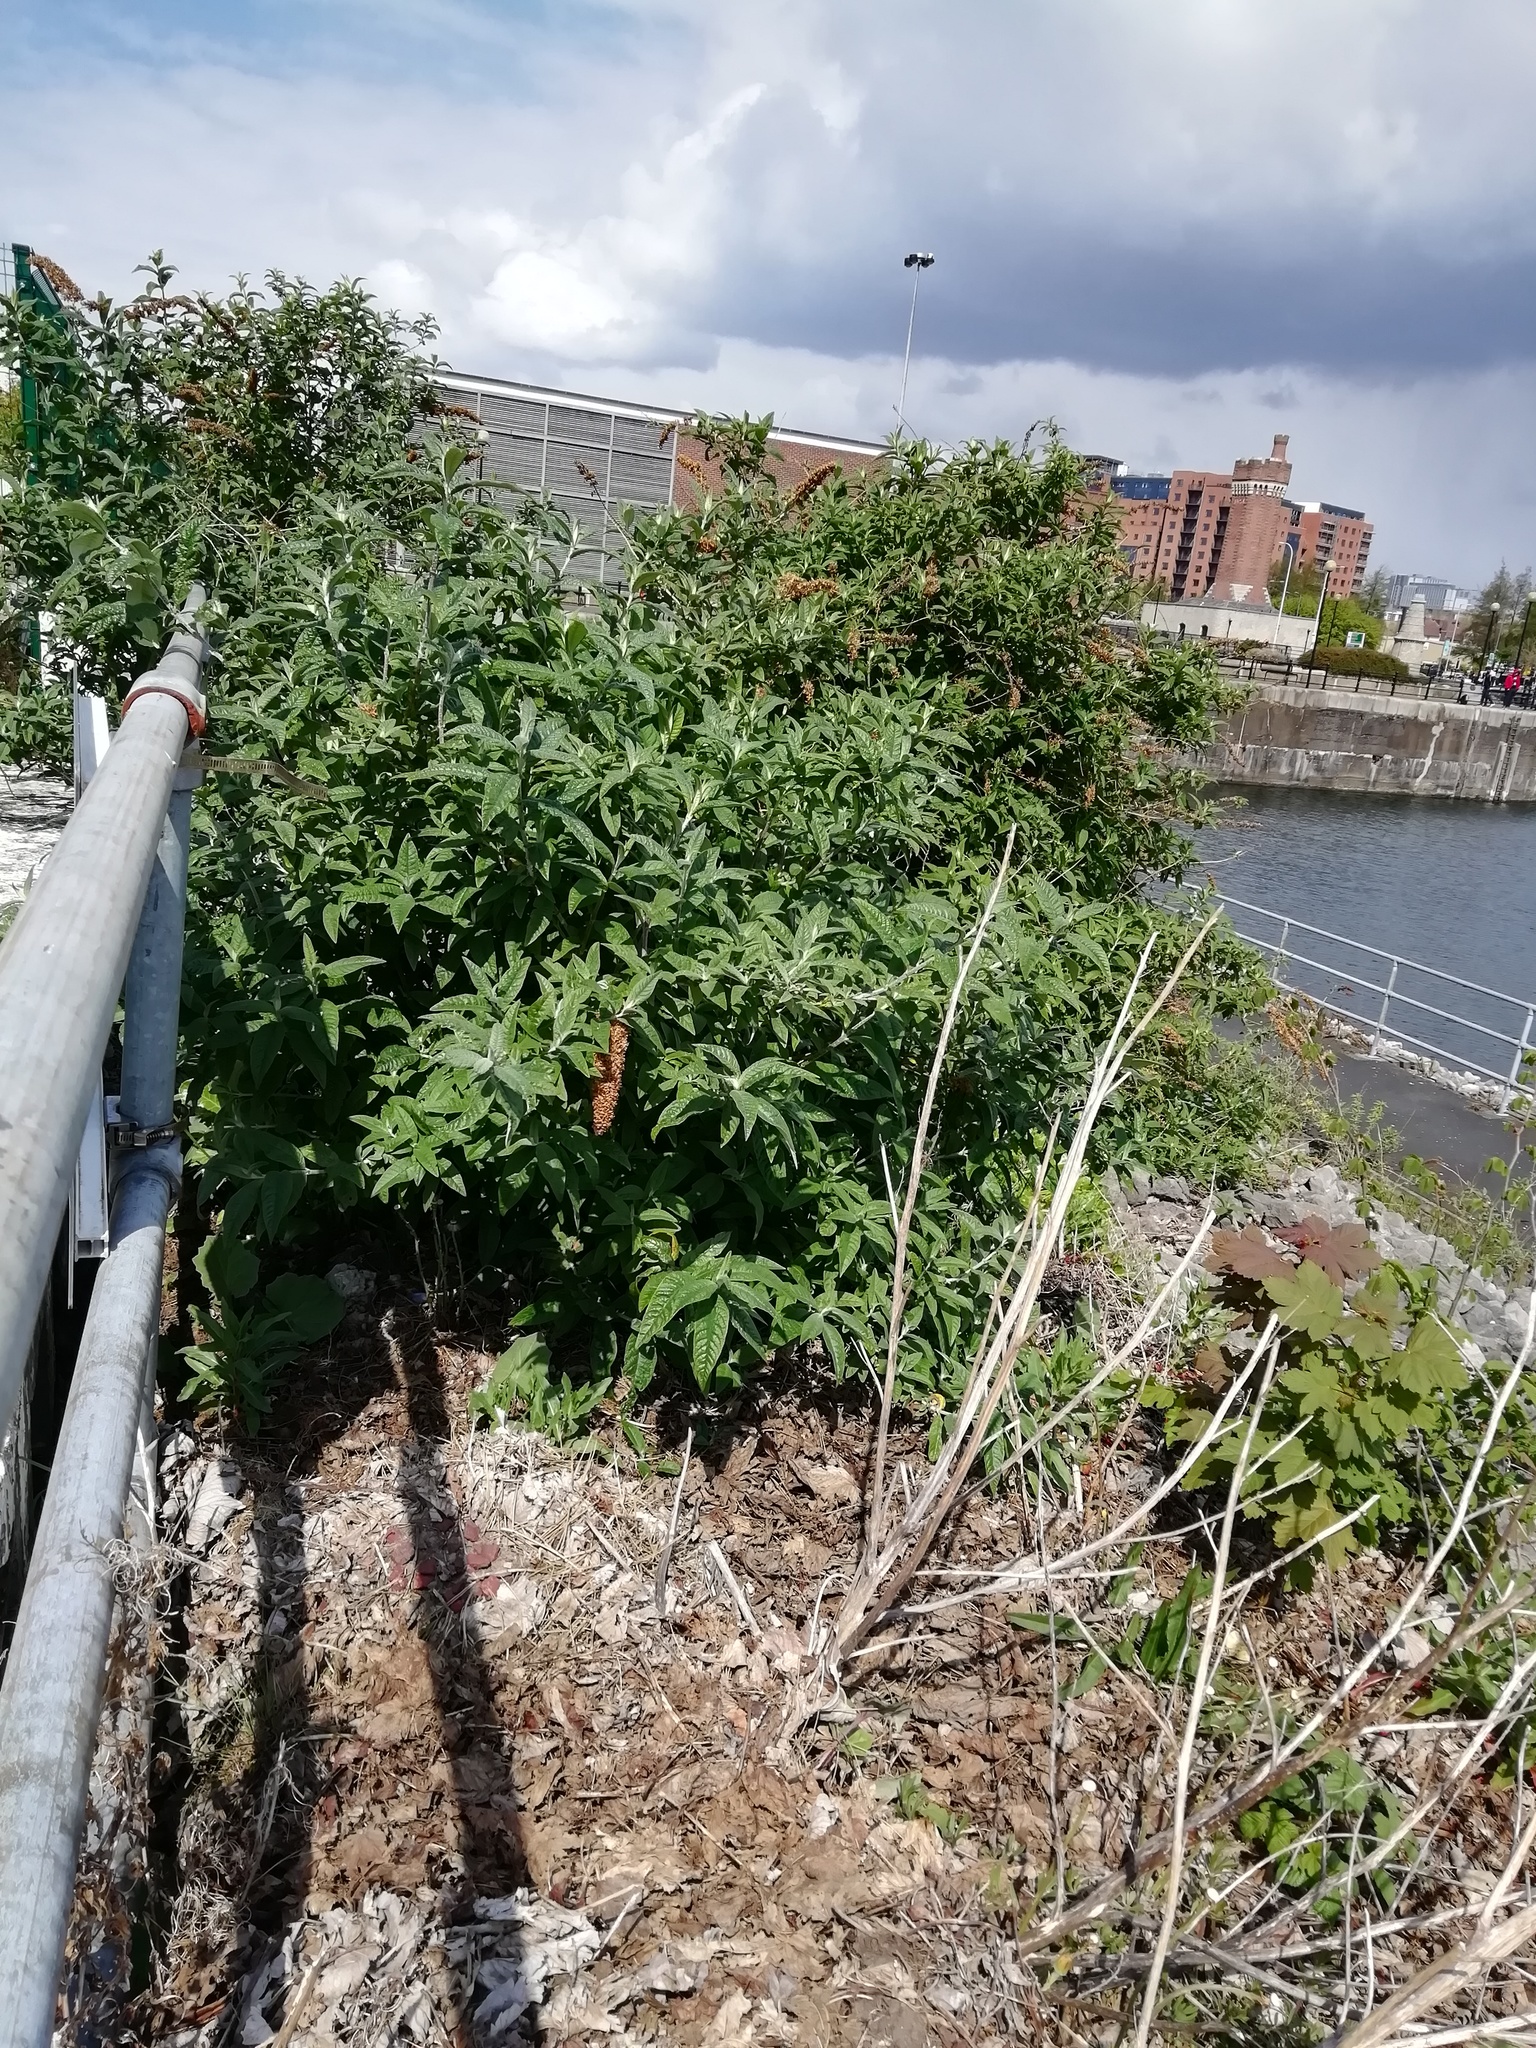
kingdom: Plantae
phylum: Tracheophyta
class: Magnoliopsida
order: Lamiales
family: Scrophulariaceae
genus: Buddleja
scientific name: Buddleja davidii
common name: Butterfly-bush
